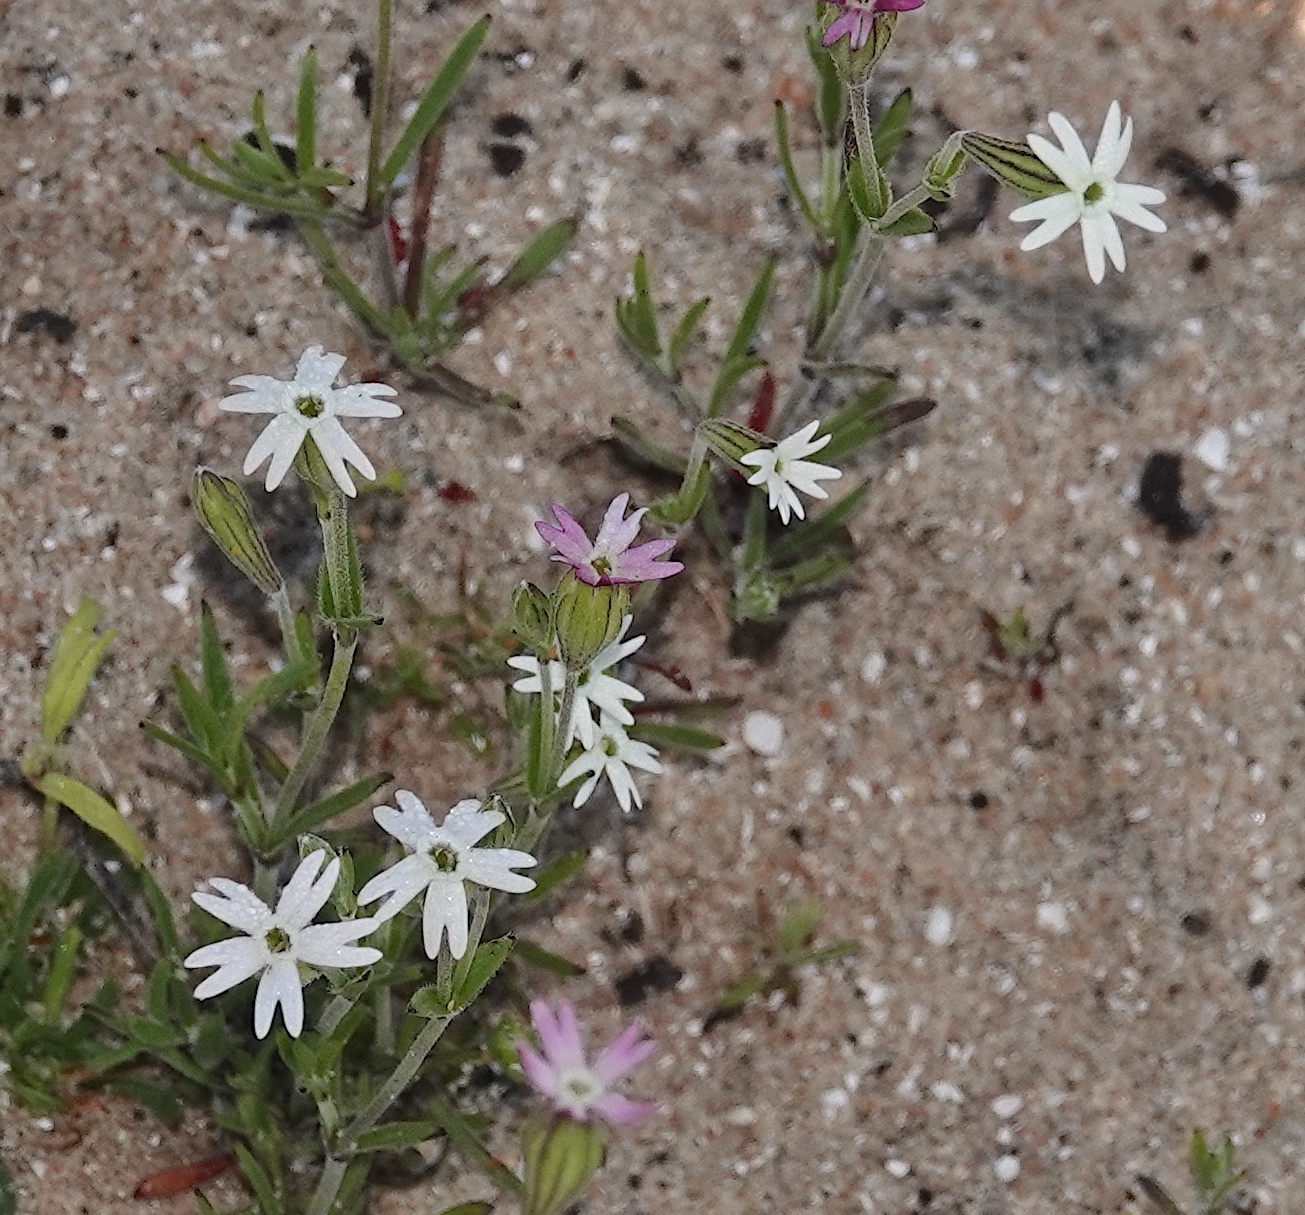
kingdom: Plantae
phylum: Tracheophyta
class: Magnoliopsida
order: Caryophyllales
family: Caryophyllaceae
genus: Silene
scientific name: Silene aethiopica
